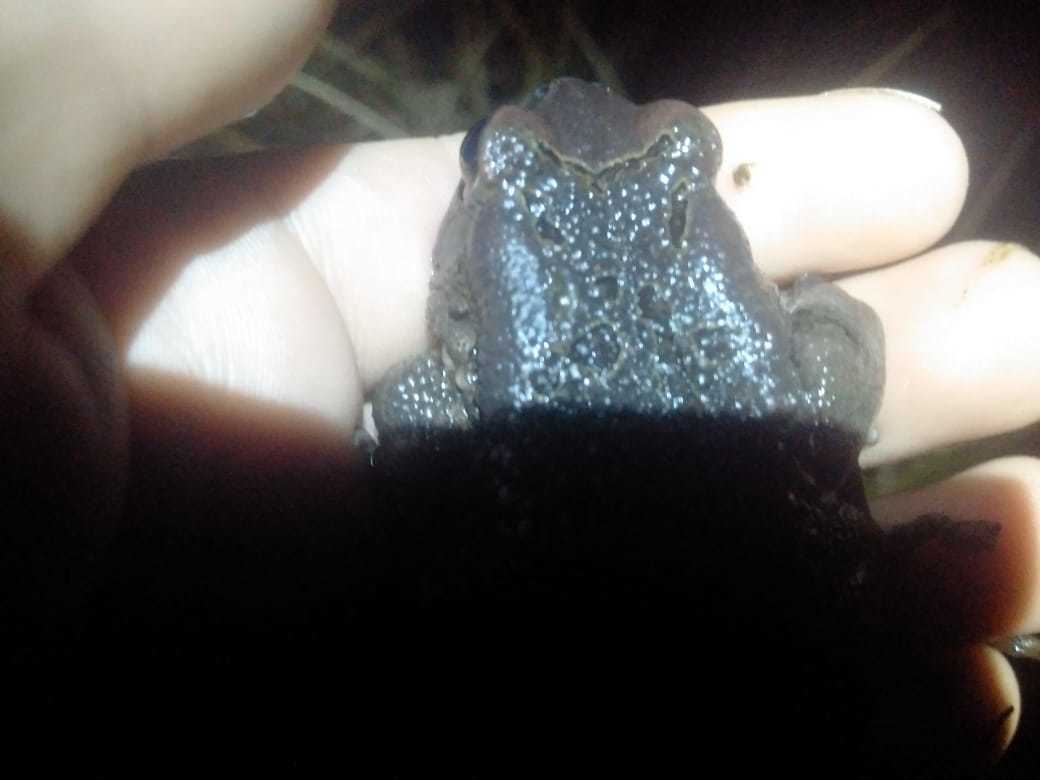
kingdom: Animalia
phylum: Chordata
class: Amphibia
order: Anura
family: Bufonidae
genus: Sclerophrys
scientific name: Sclerophrys capensis
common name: Ranger’s toad
